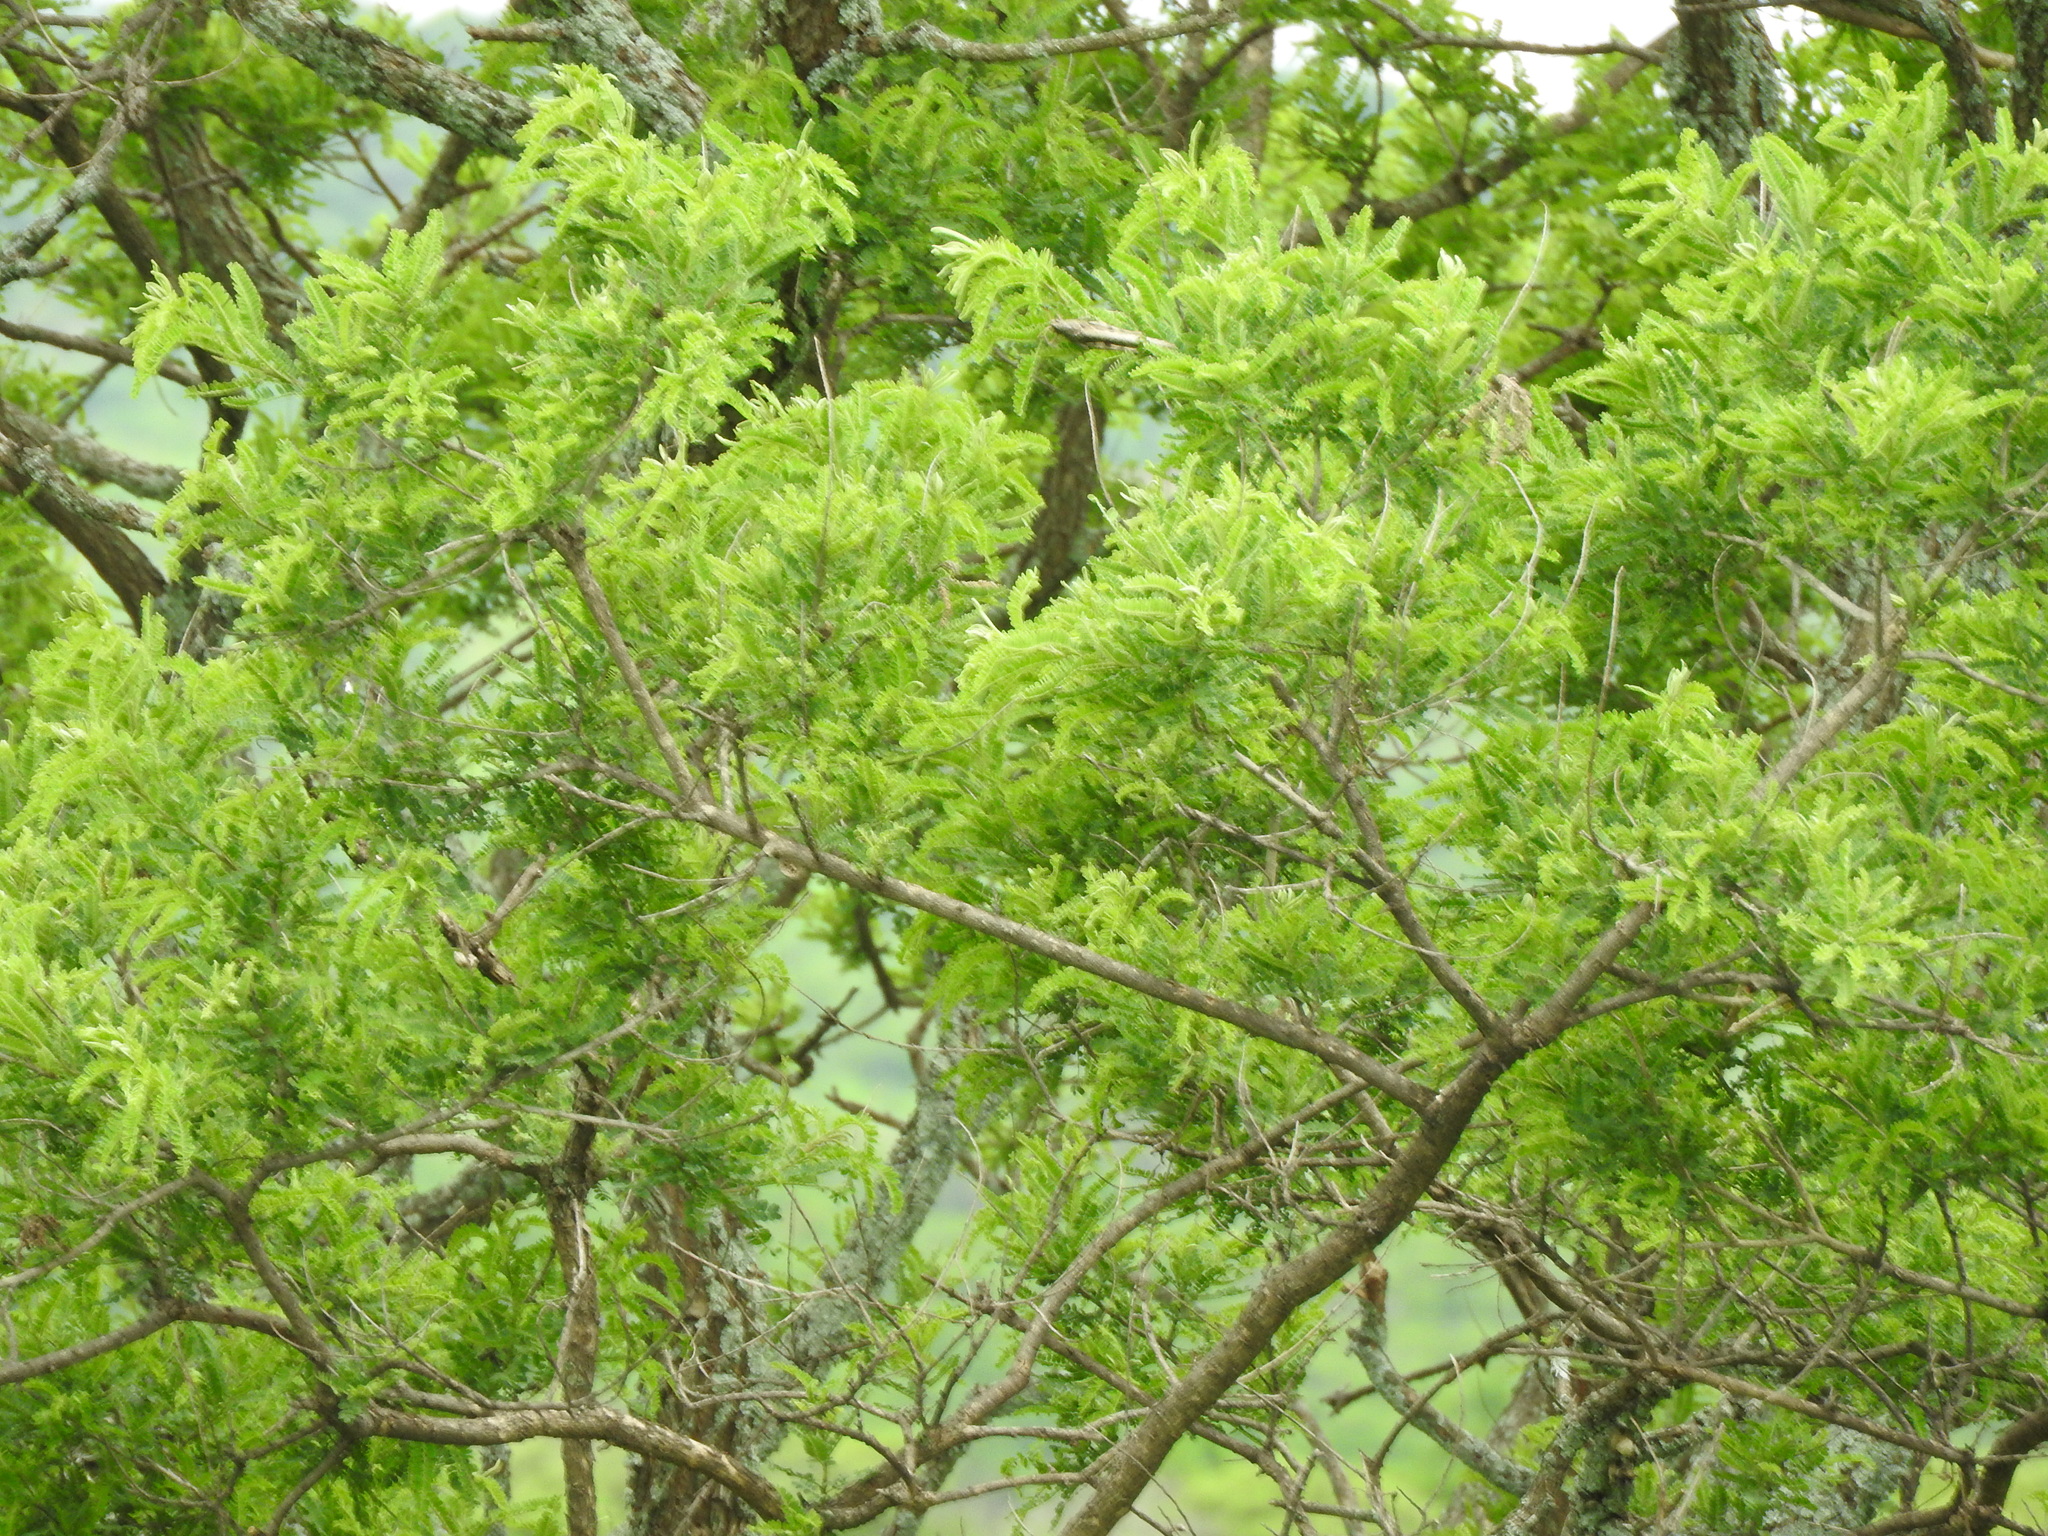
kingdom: Plantae
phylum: Tracheophyta
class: Magnoliopsida
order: Fabales
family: Fabaceae
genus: Eysenhardtia
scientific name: Eysenhardtia polystachya
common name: Kidneywood
